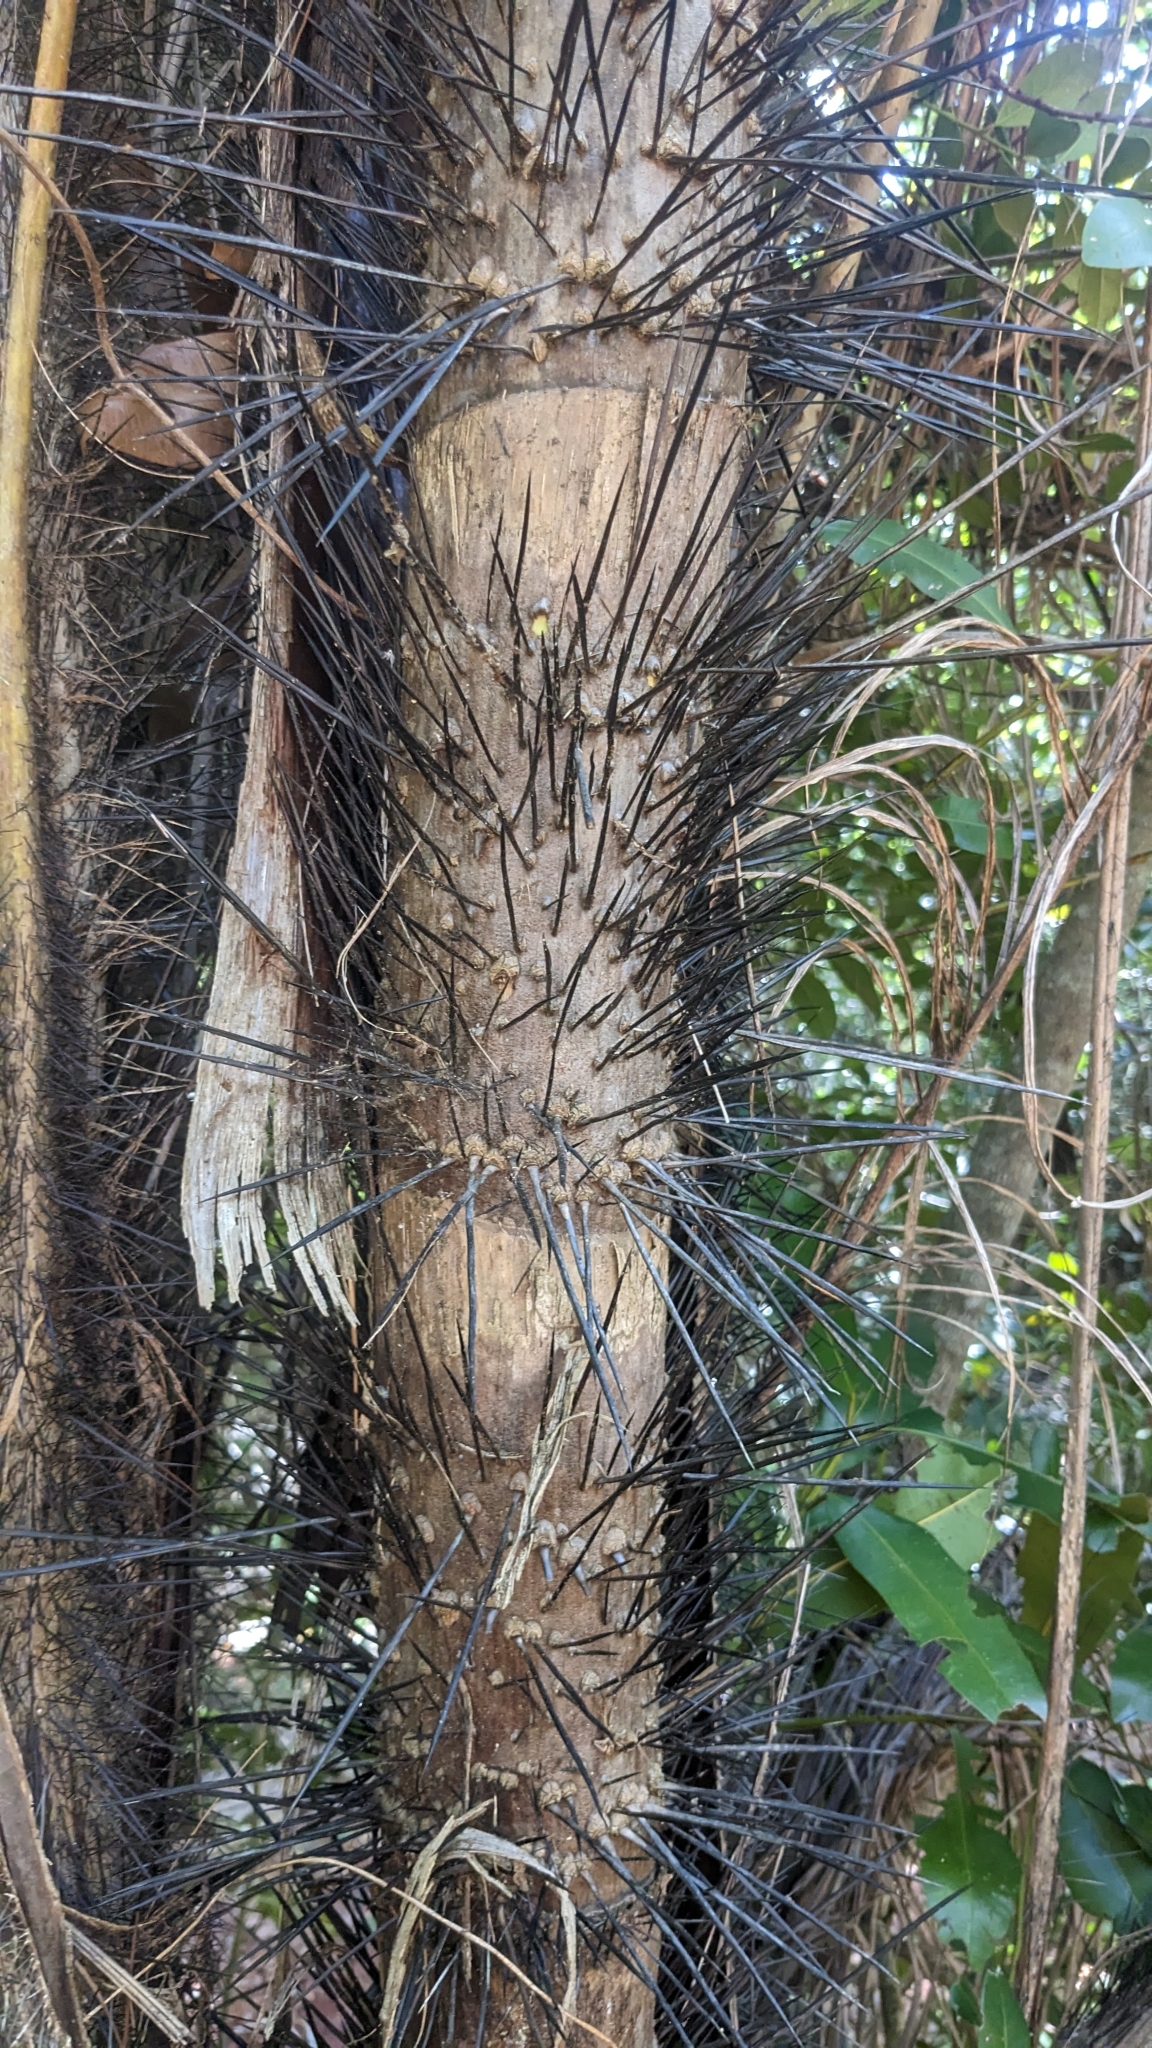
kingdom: Plantae
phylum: Tracheophyta
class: Liliopsida
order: Arecales
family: Arecaceae
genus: Bactris
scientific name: Bactris cubensis
